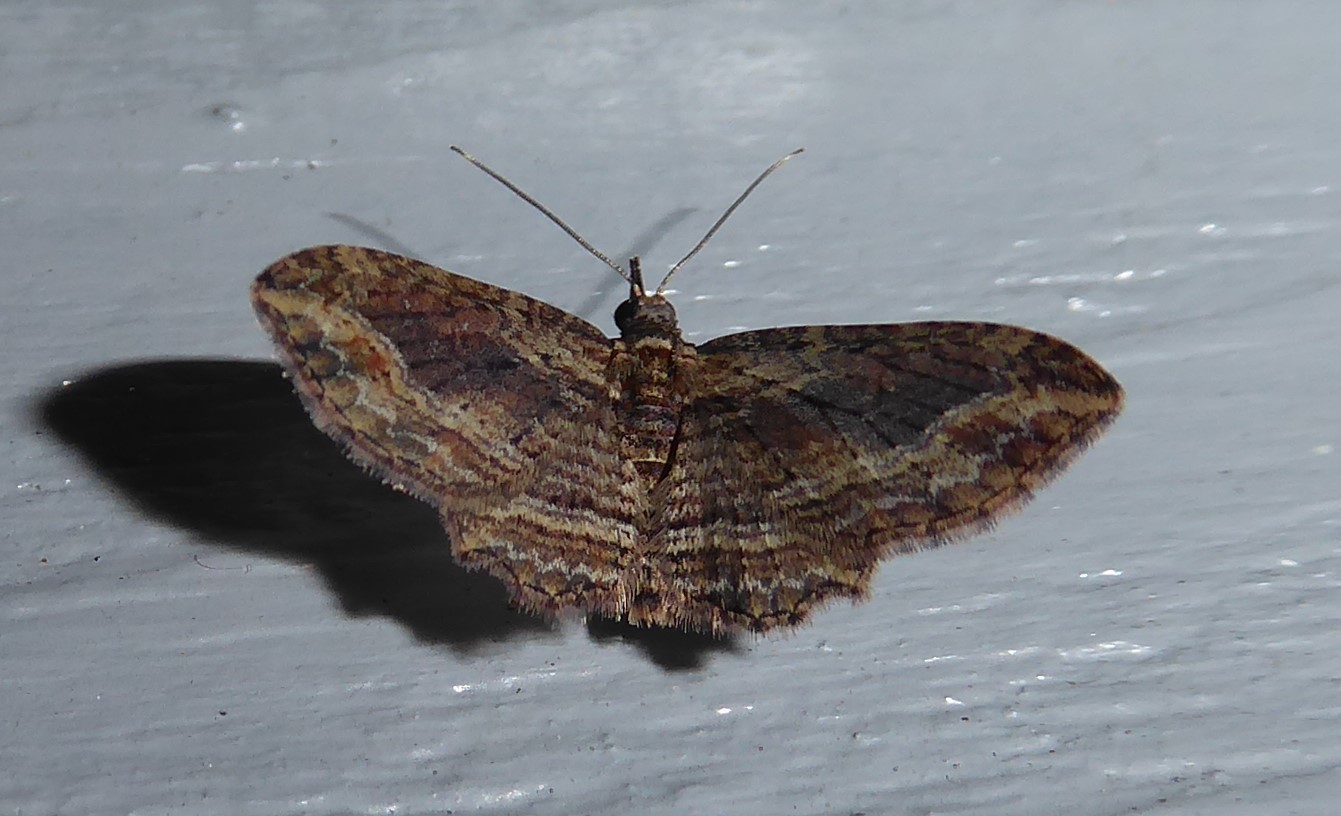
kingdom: Animalia
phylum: Arthropoda
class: Insecta
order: Lepidoptera
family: Geometridae
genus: Chloroclystis
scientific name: Chloroclystis filata
